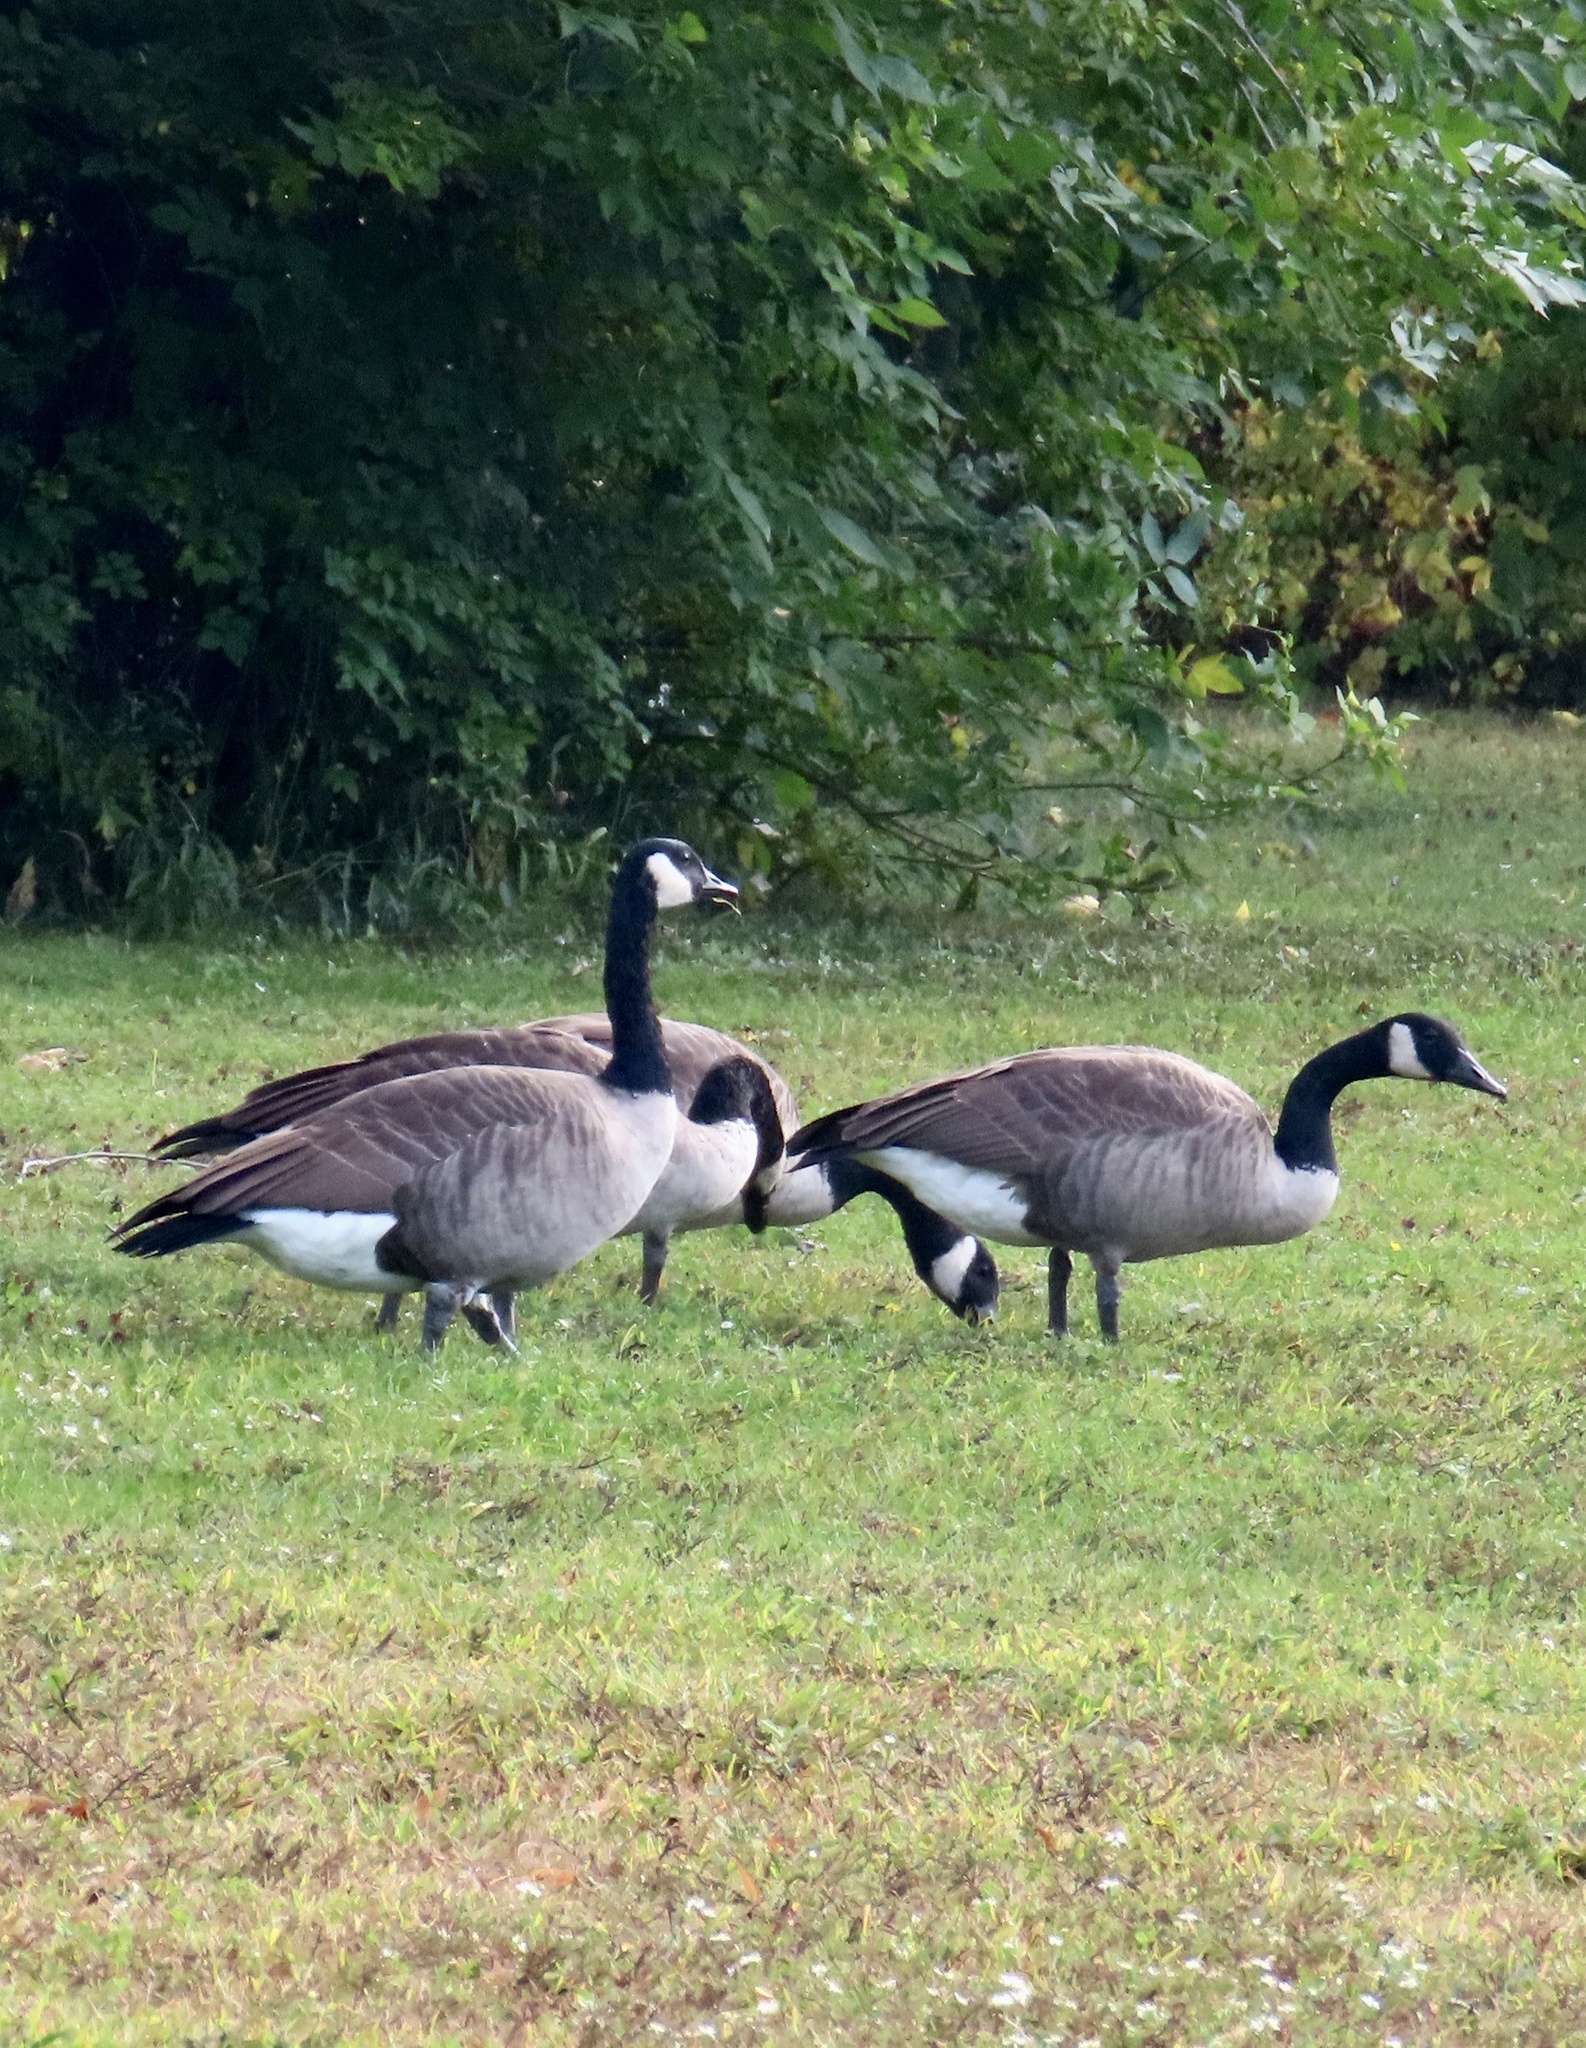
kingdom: Animalia
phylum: Chordata
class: Aves
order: Anseriformes
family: Anatidae
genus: Branta
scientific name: Branta canadensis
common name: Canada goose
